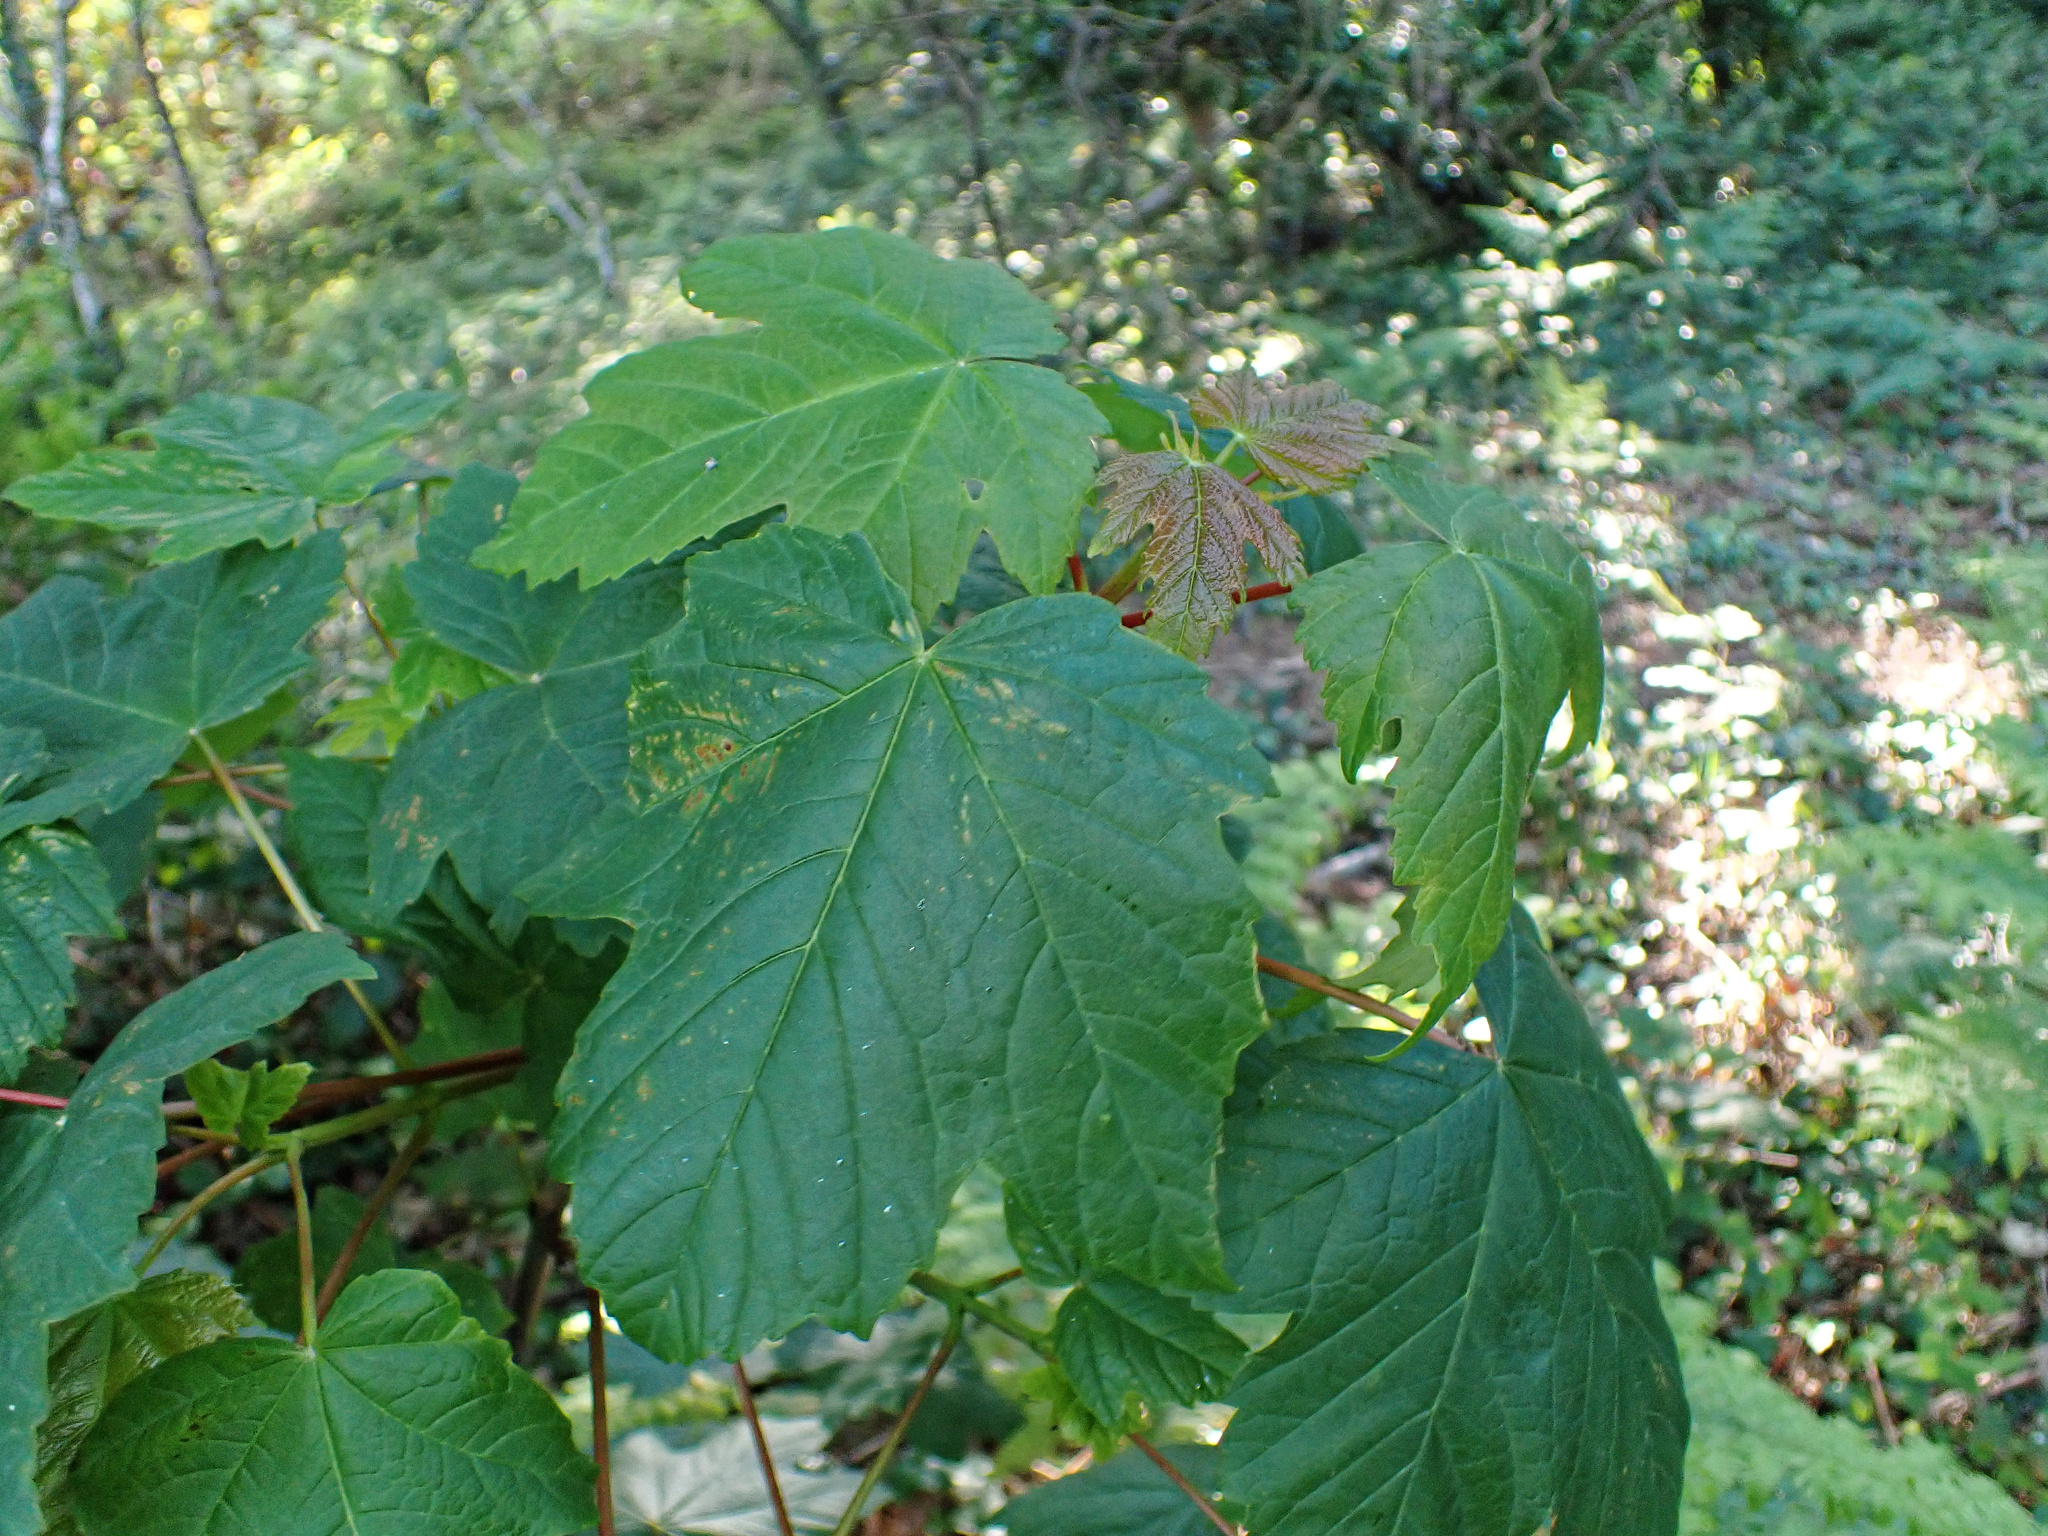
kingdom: Plantae
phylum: Tracheophyta
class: Magnoliopsida
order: Sapindales
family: Sapindaceae
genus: Acer
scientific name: Acer pseudoplatanus
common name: Sycamore
